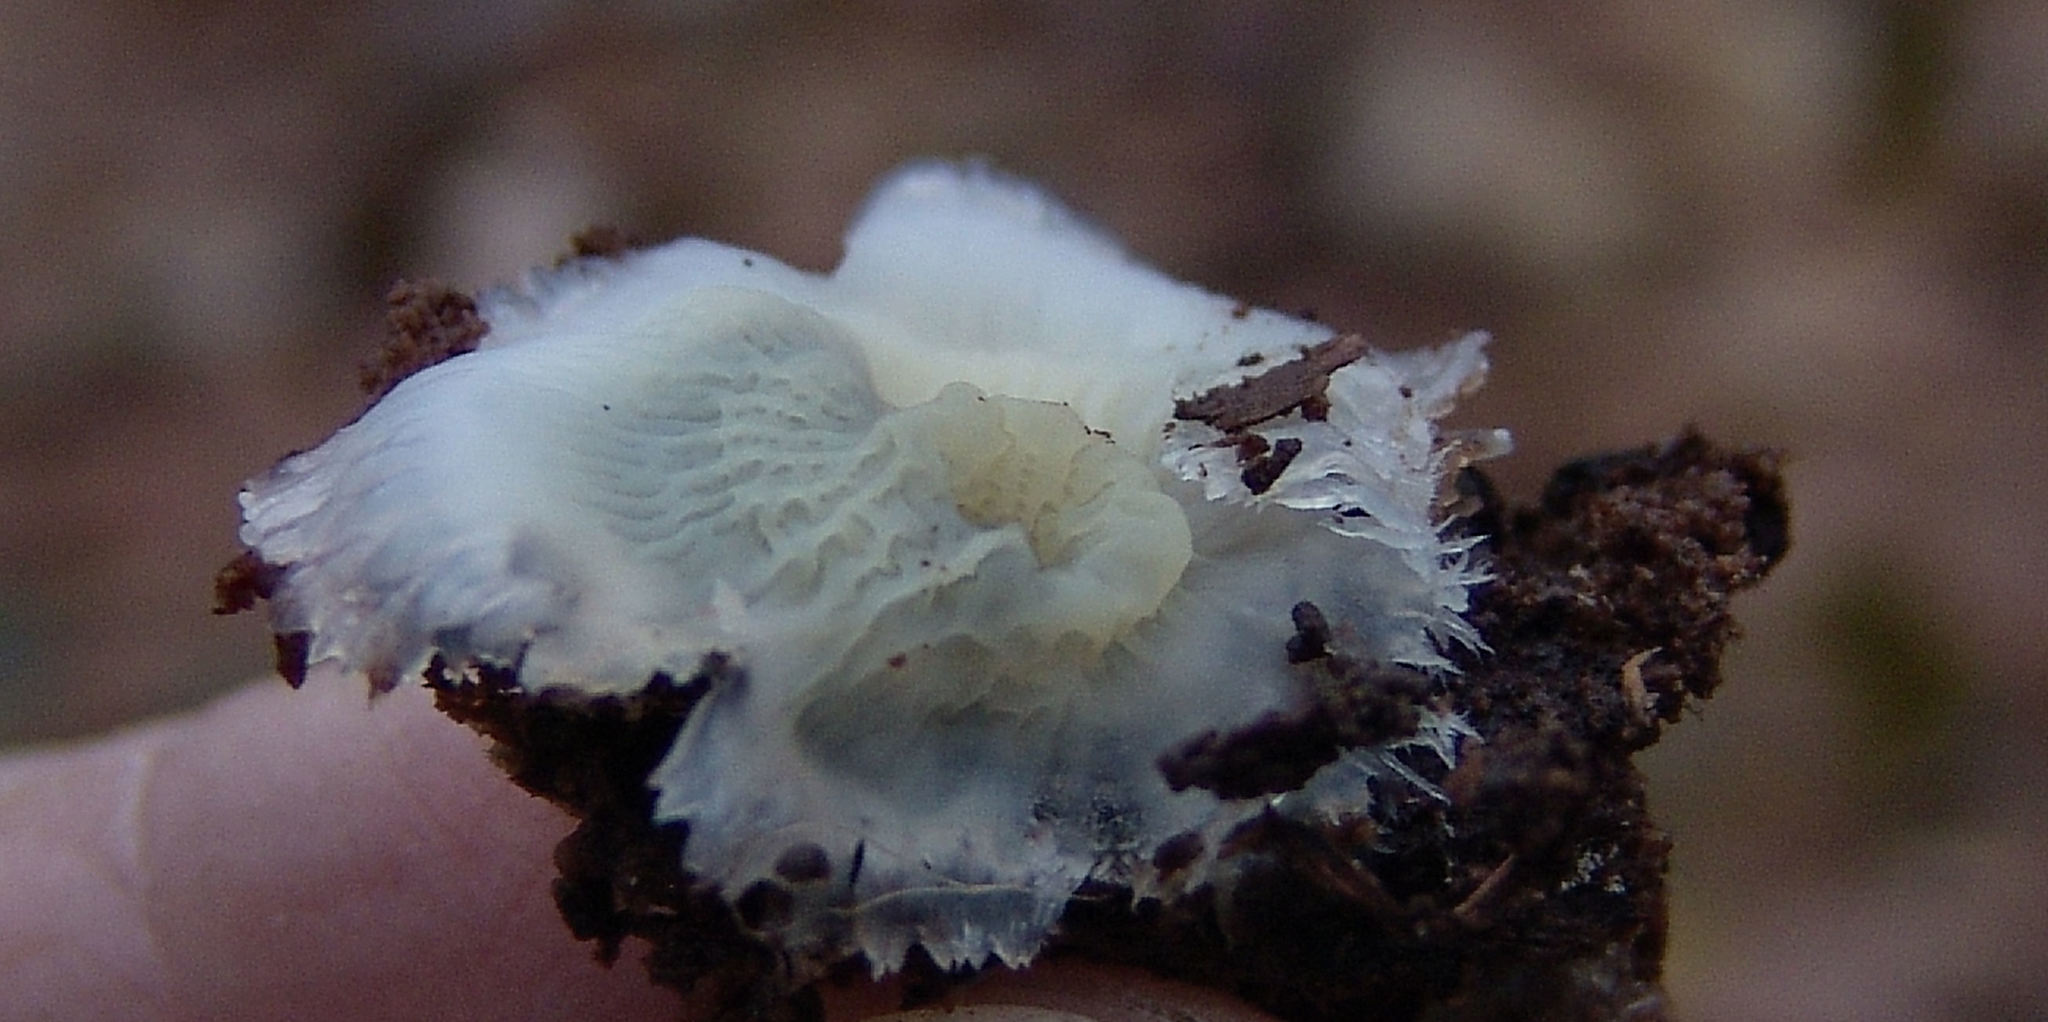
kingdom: Fungi
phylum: Basidiomycota
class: Agaricomycetes
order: Polyporales
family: Meruliaceae
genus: Phlebia
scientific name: Phlebia tremellosa
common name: Jelly rot
